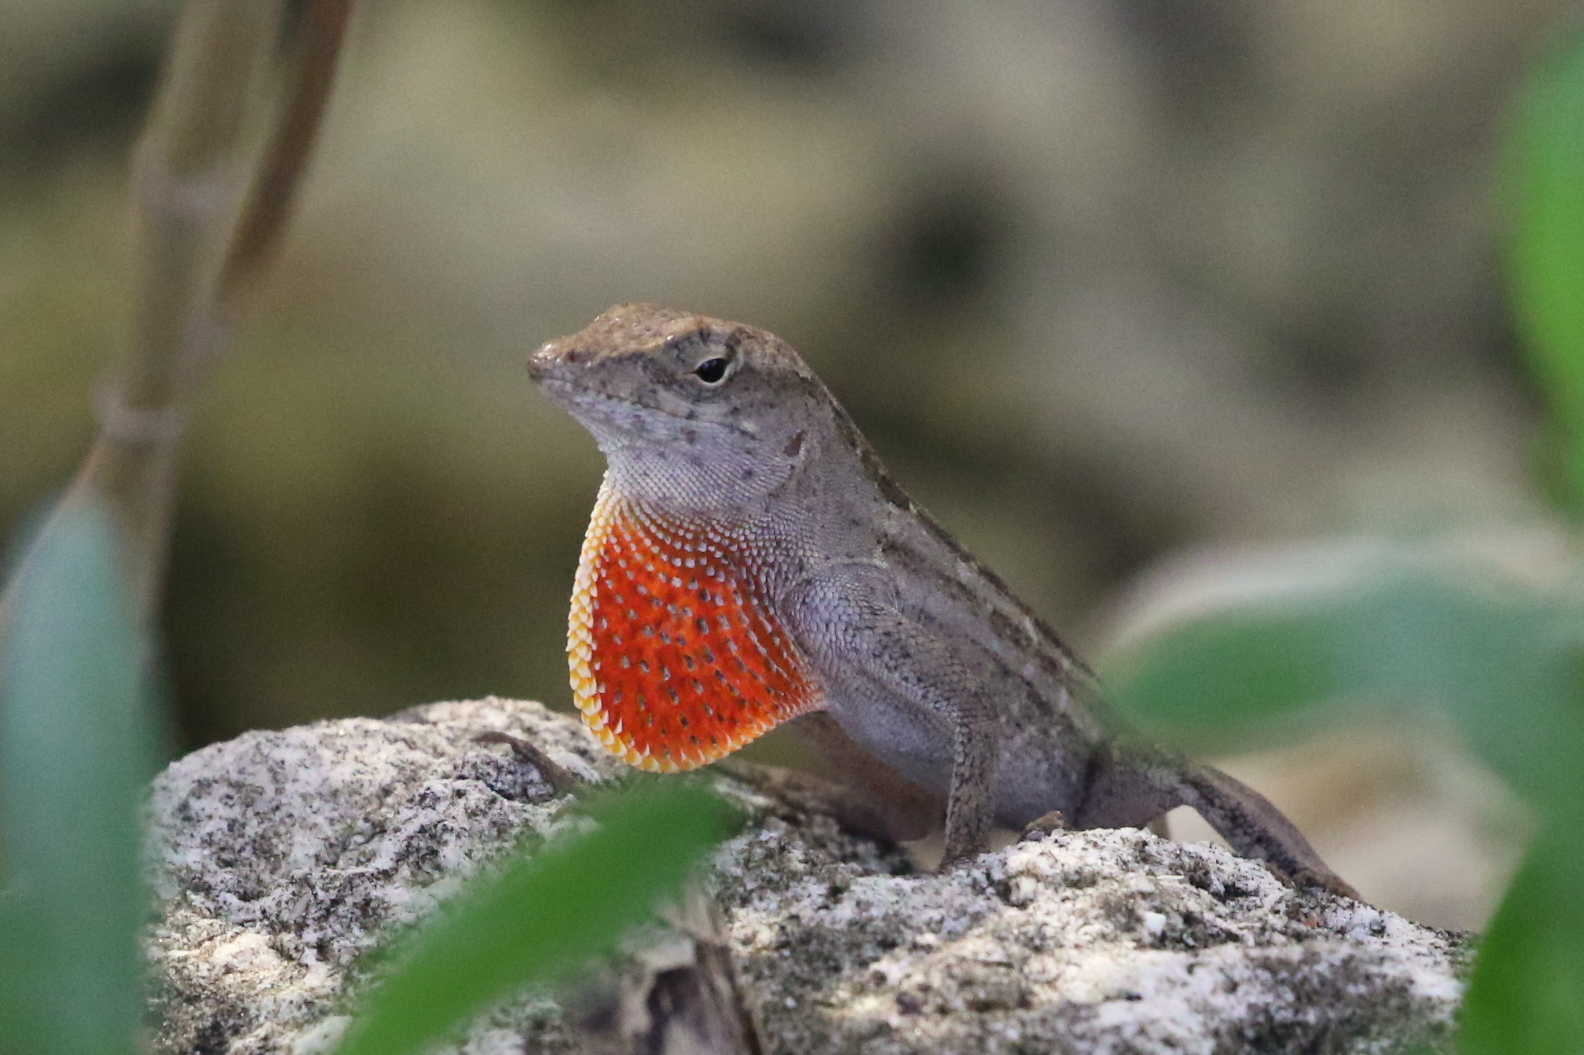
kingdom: Animalia
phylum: Chordata
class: Squamata
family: Dactyloidae
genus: Anolis
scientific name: Anolis sagrei
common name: Brown anole
